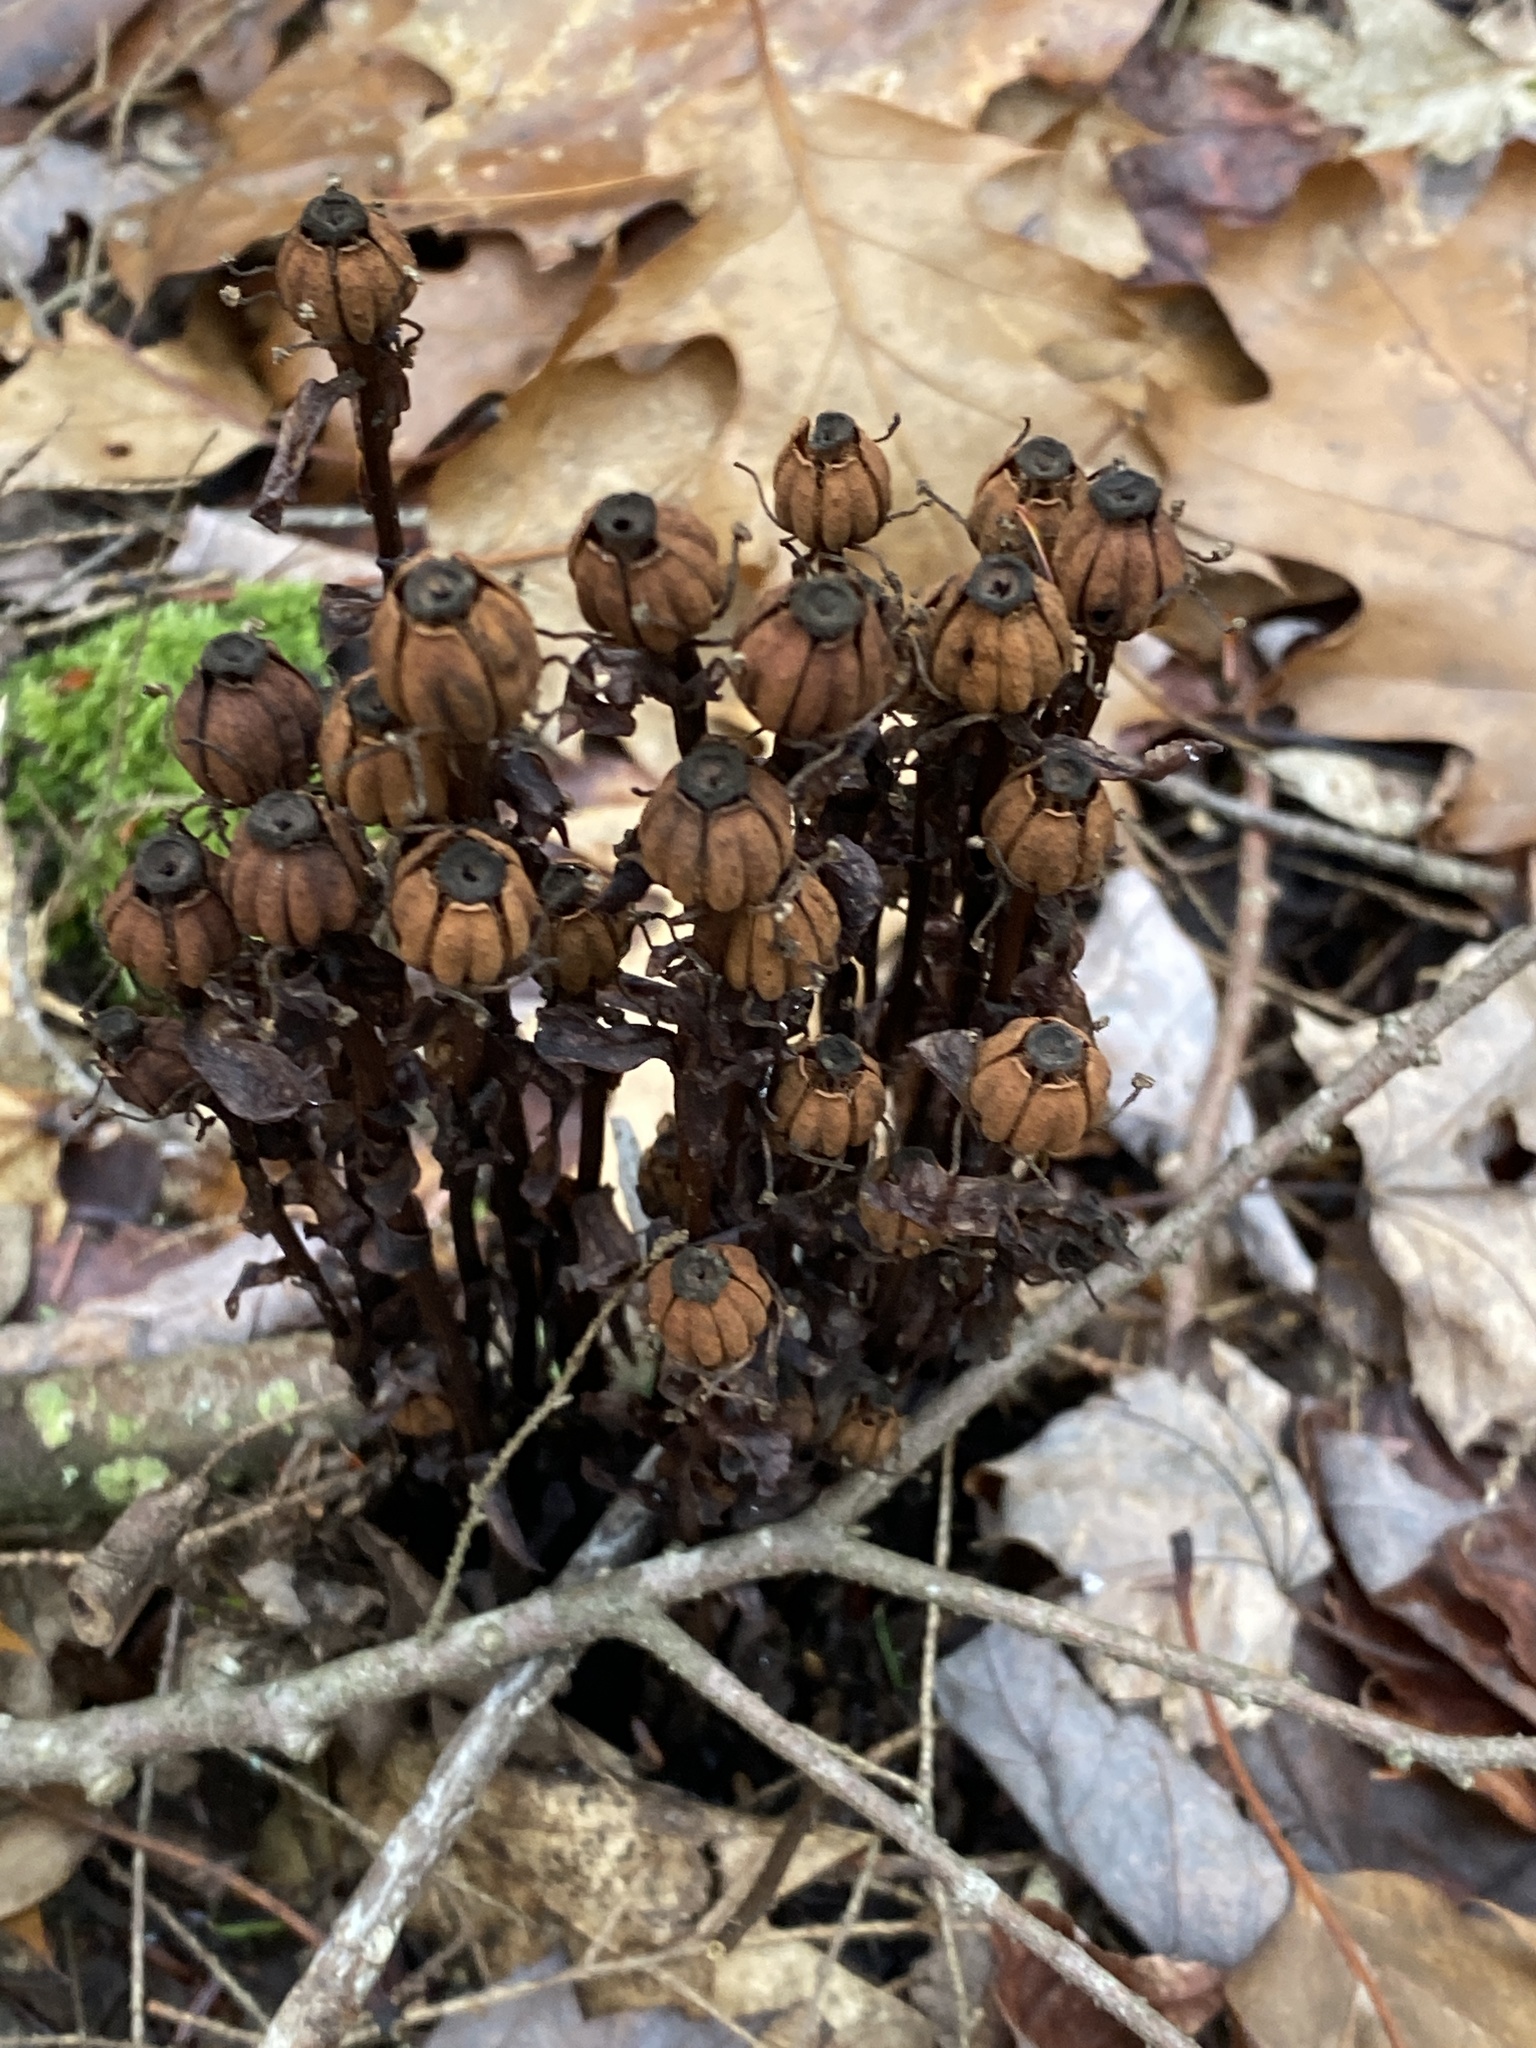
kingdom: Plantae
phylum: Tracheophyta
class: Magnoliopsida
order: Ericales
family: Ericaceae
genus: Monotropa
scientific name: Monotropa uniflora
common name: Convulsion root
